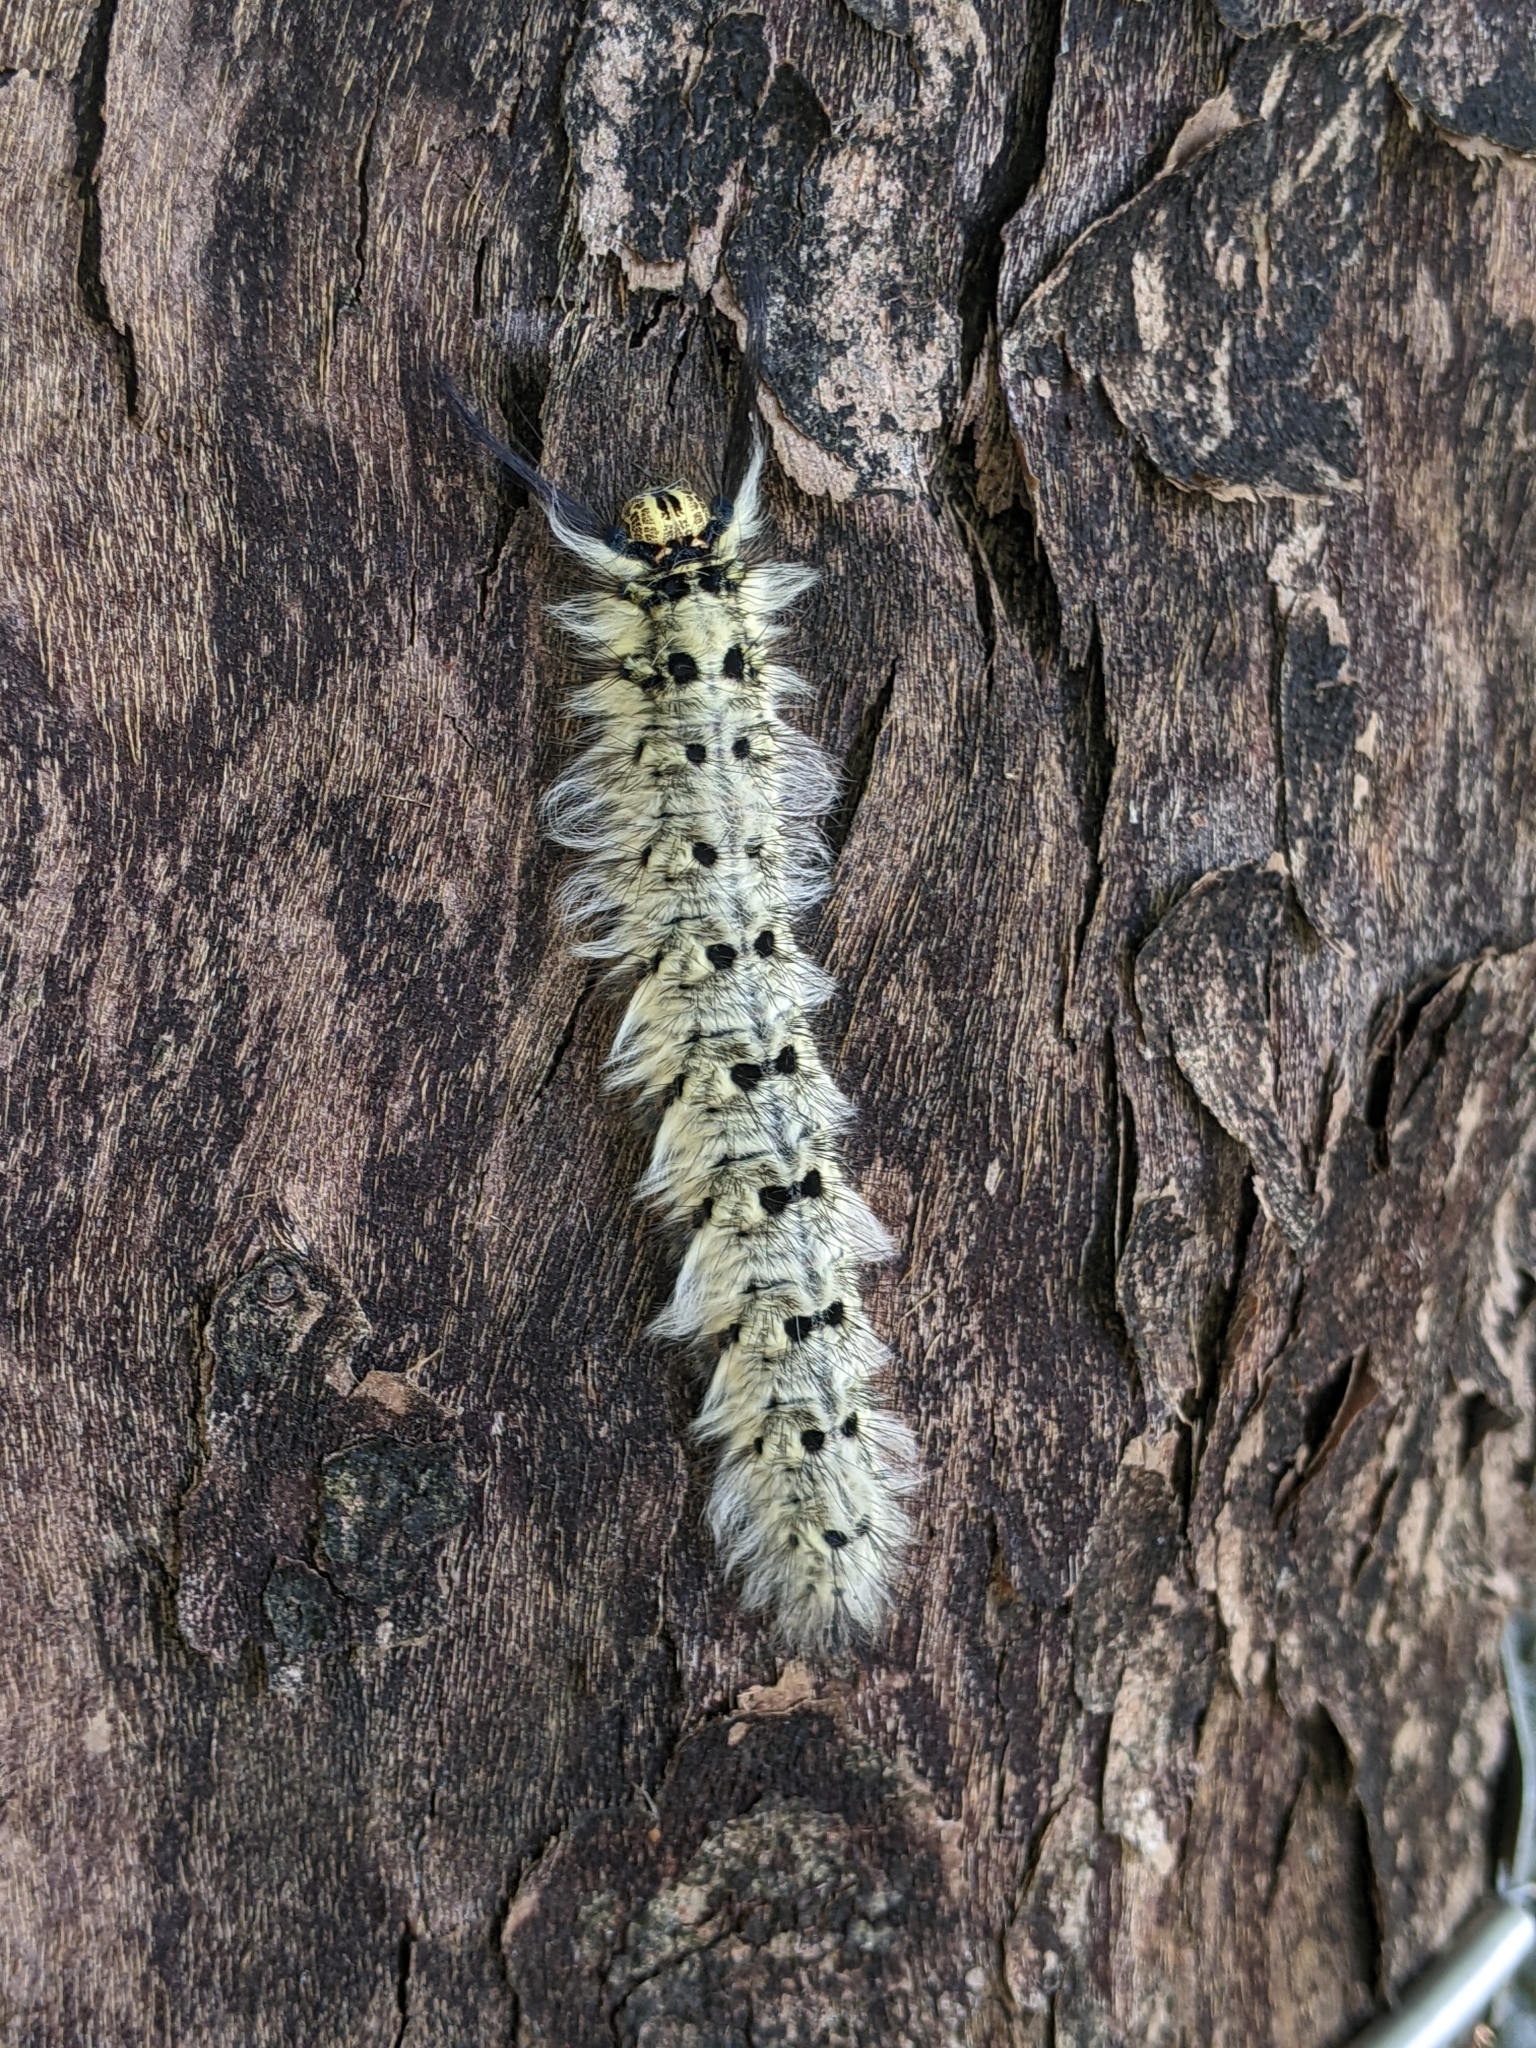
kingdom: Animalia
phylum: Arthropoda
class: Insecta
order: Lepidoptera
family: Lasiocampidae
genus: Trabala
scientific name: Trabala vishnou
